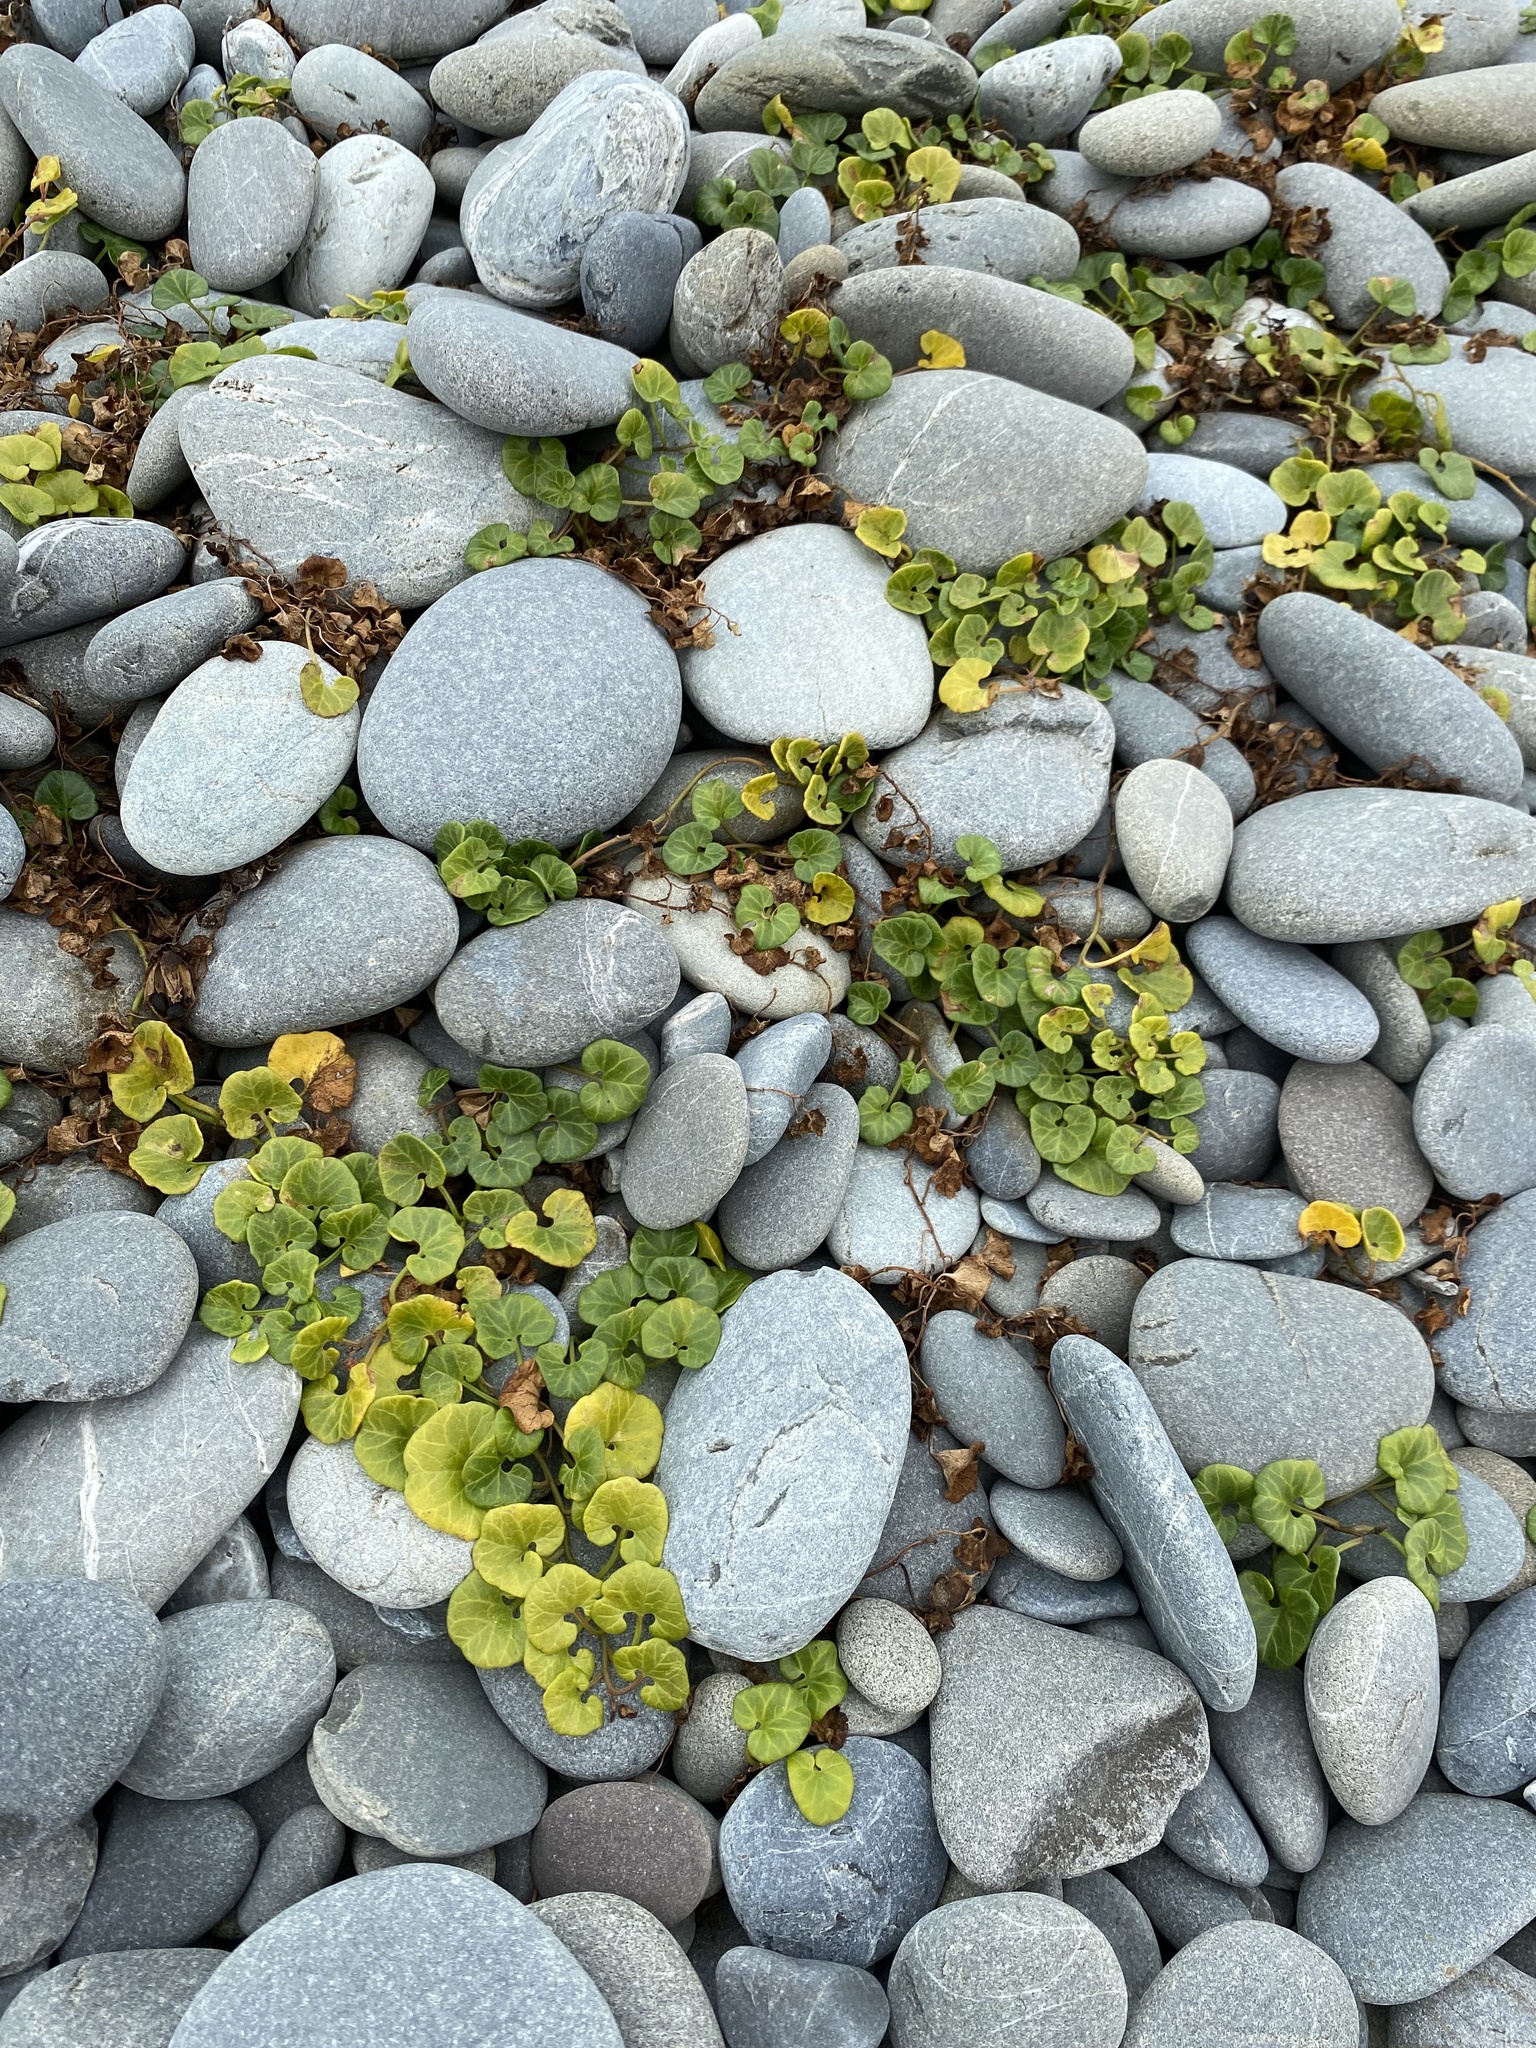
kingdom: Plantae
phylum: Tracheophyta
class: Magnoliopsida
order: Solanales
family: Convolvulaceae
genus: Calystegia
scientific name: Calystegia soldanella
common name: Sea bindweed
